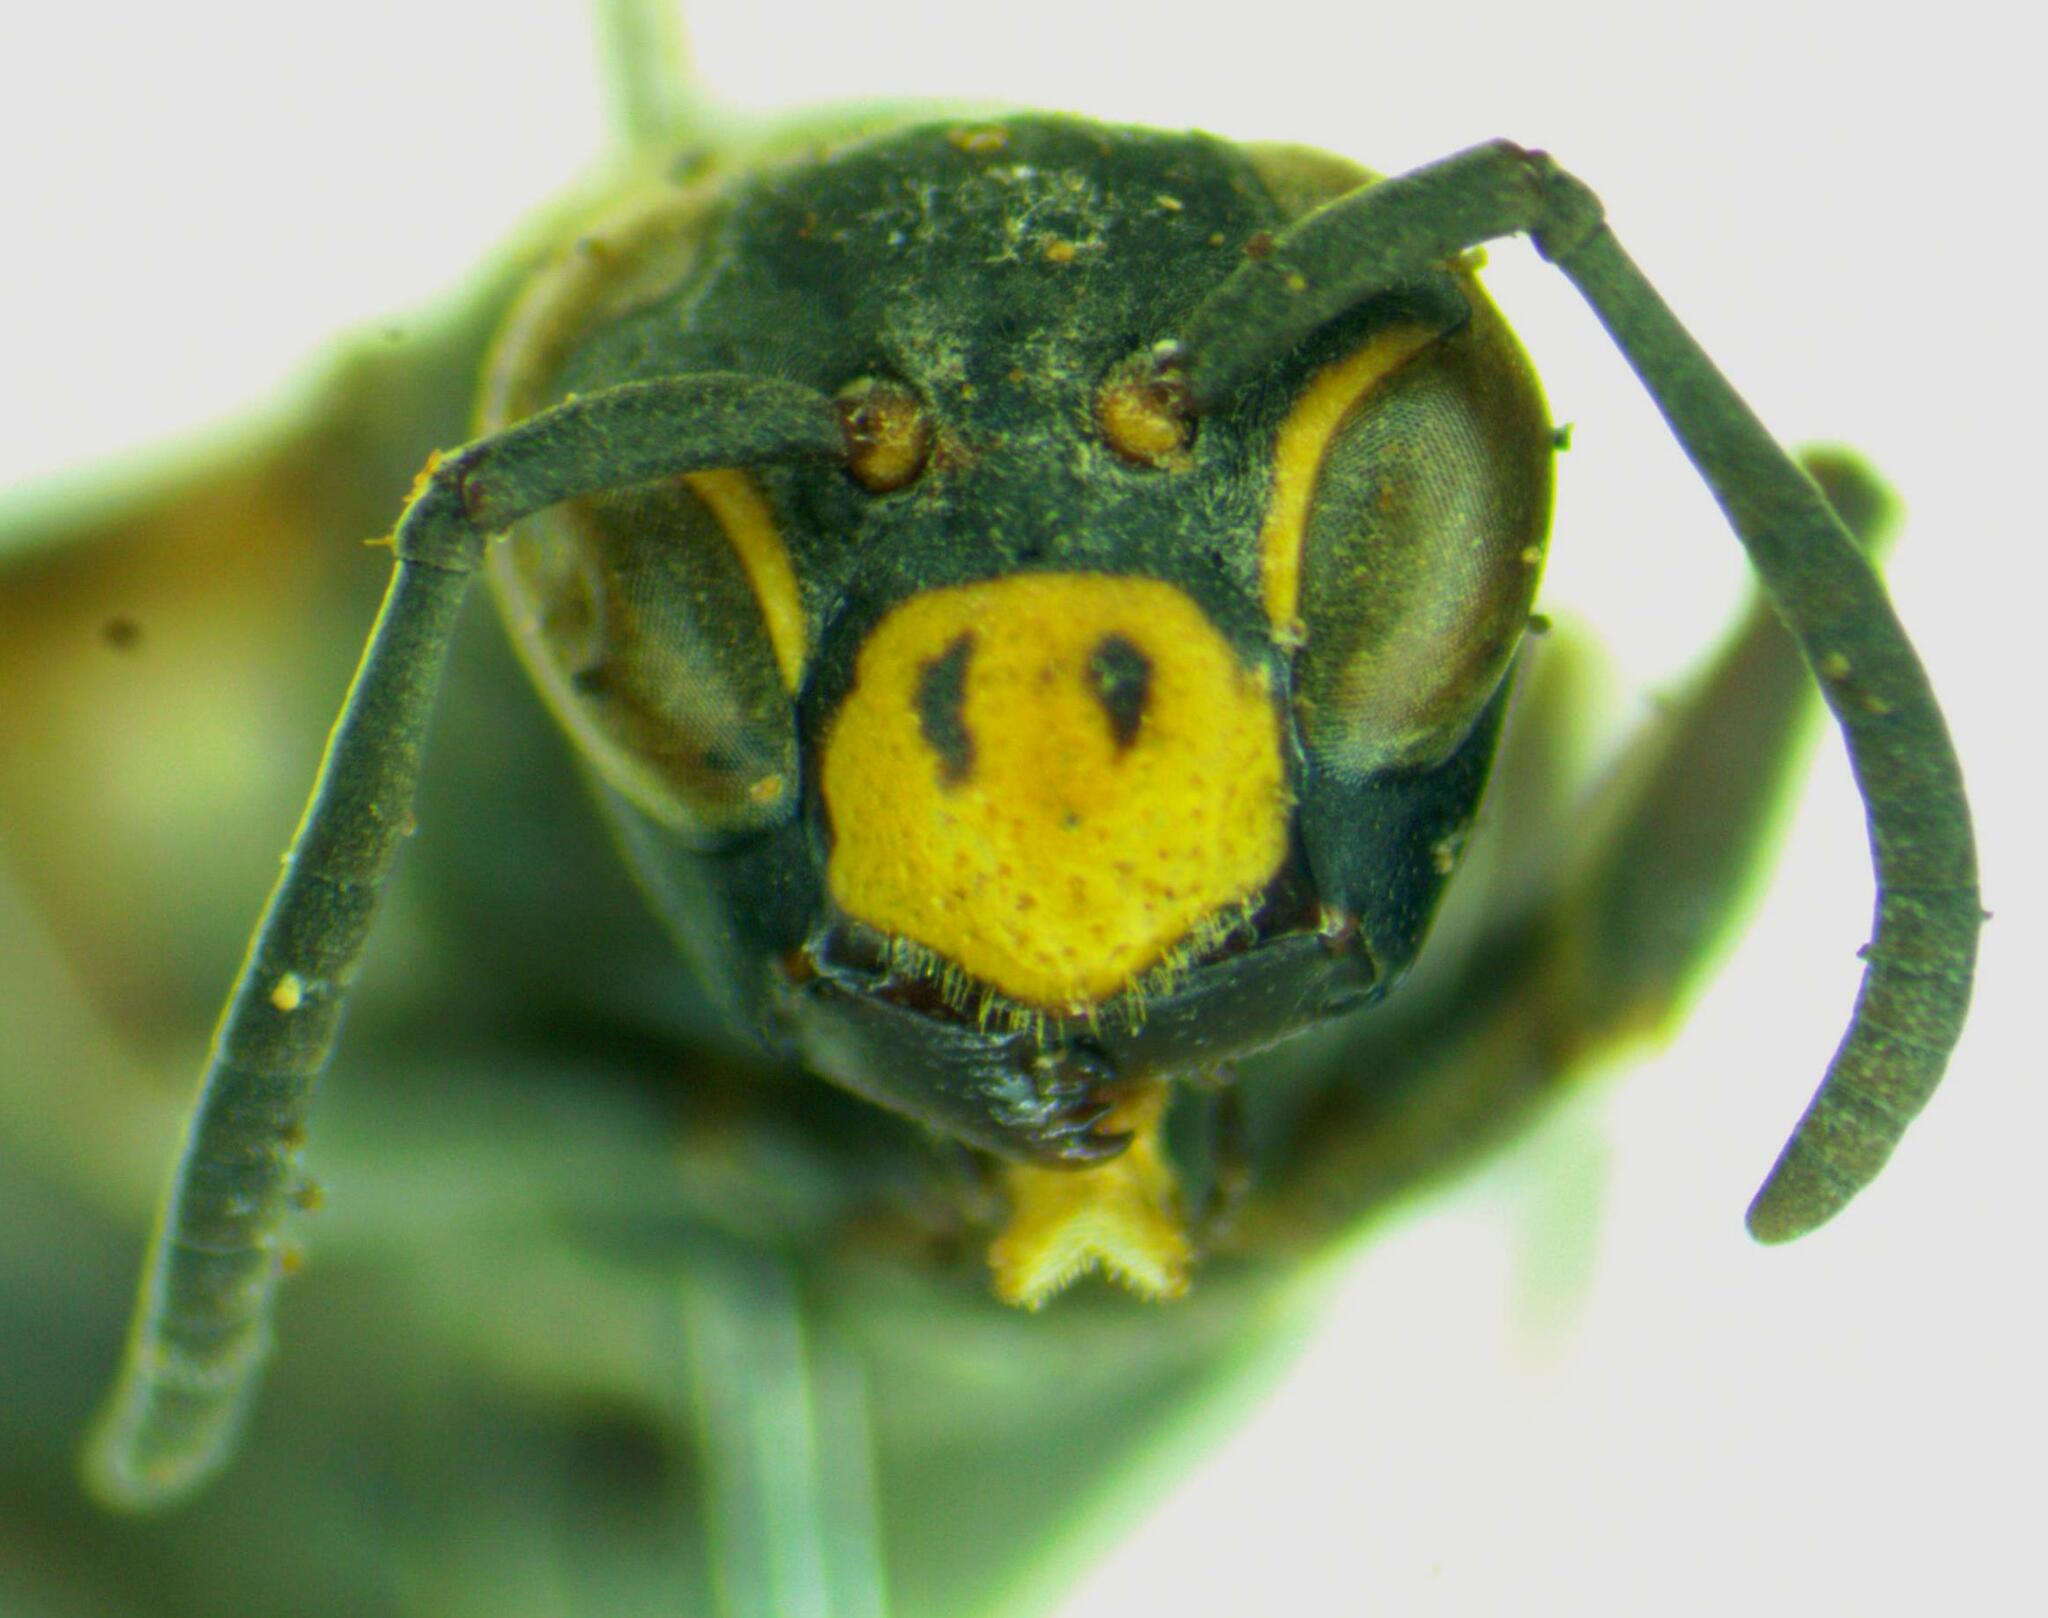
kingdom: Animalia
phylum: Arthropoda
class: Insecta
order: Hymenoptera
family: Eumenidae
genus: Polistes
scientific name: Polistes actaeon
